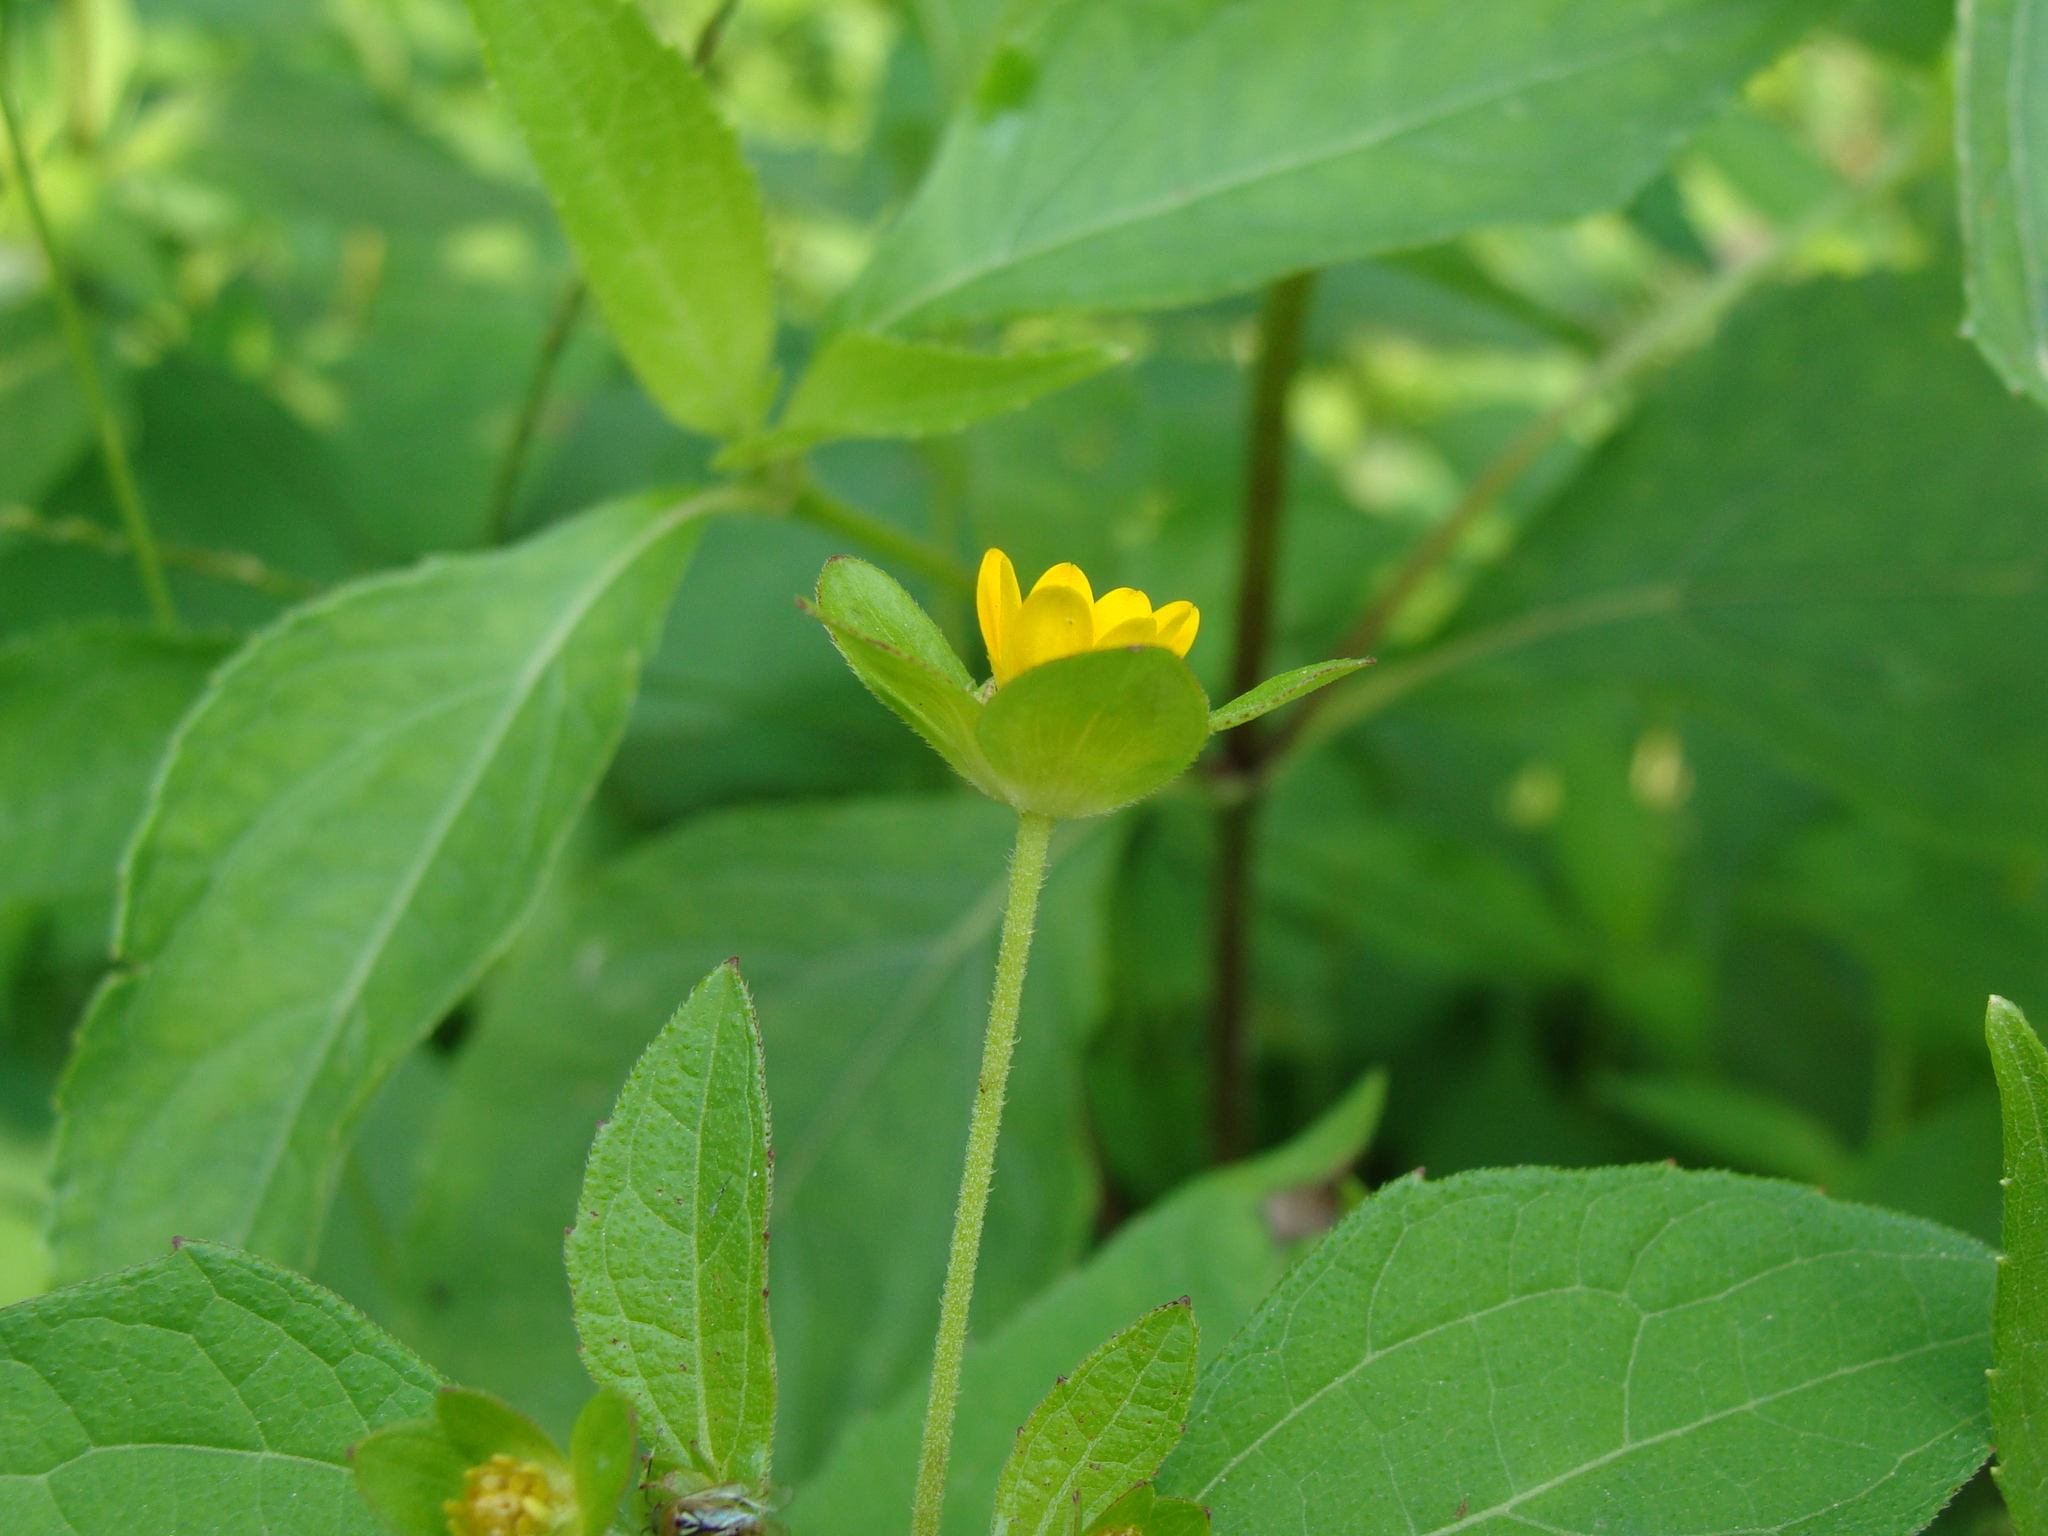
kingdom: Plantae
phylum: Tracheophyta
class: Magnoliopsida
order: Asterales
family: Asteraceae
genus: Melampodium
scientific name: Melampodium perfoliatum
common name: Perfoliate blackfoot
